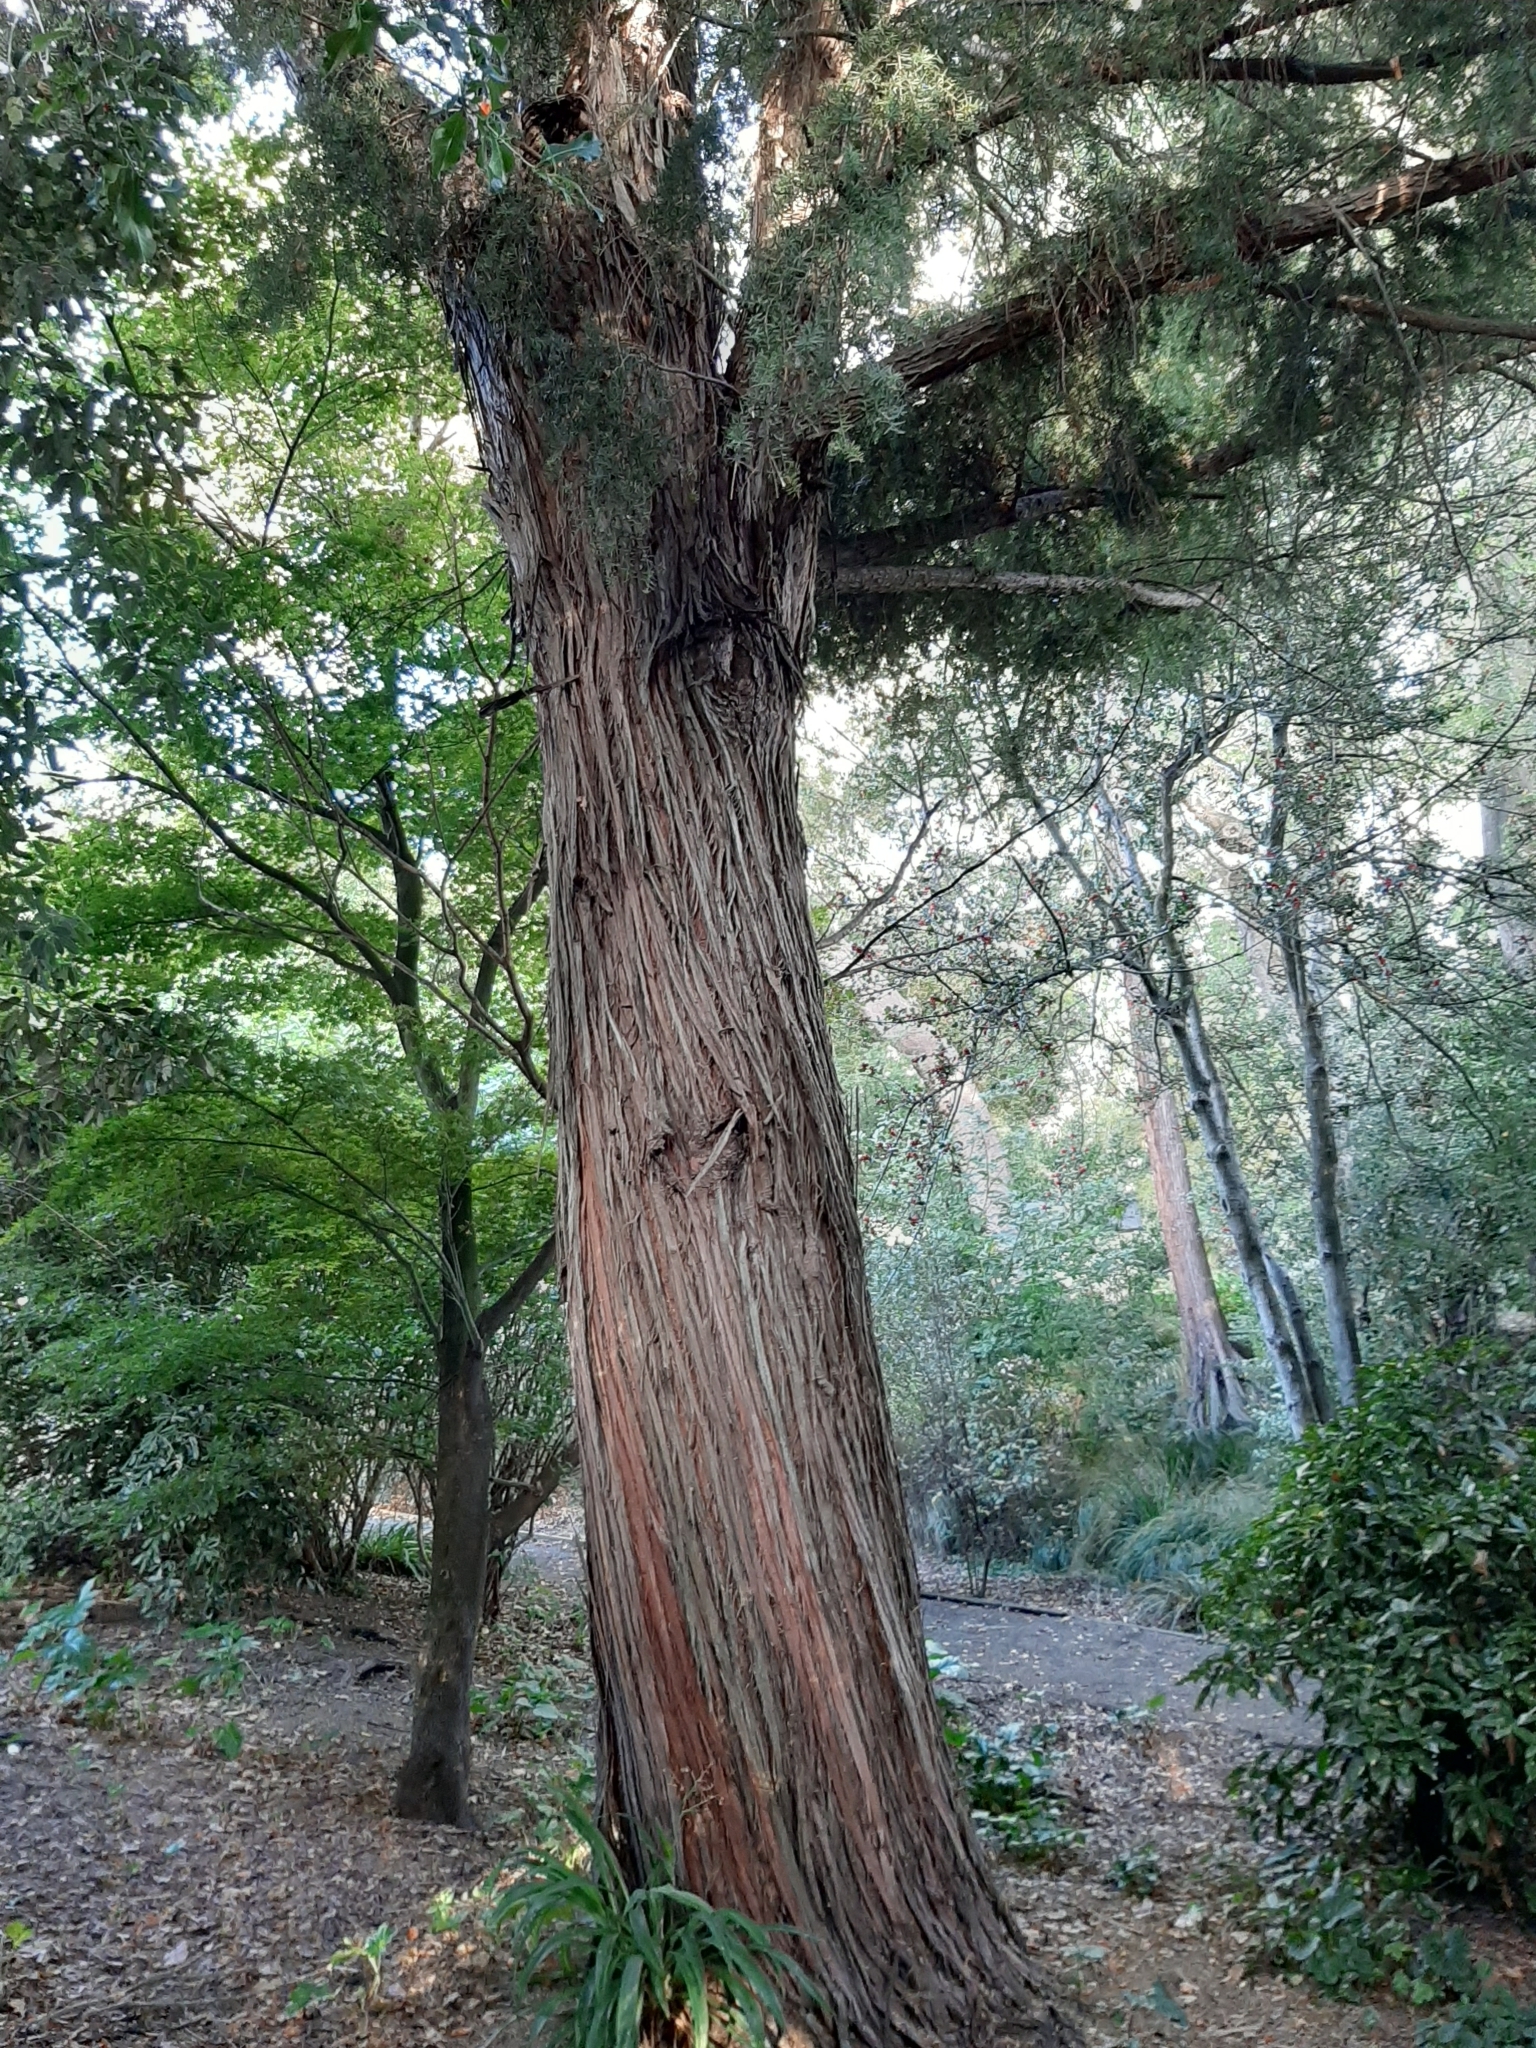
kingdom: Plantae
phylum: Tracheophyta
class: Pinopsida
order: Pinales
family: Podocarpaceae
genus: Podocarpus
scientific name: Podocarpus totara
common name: Totara
